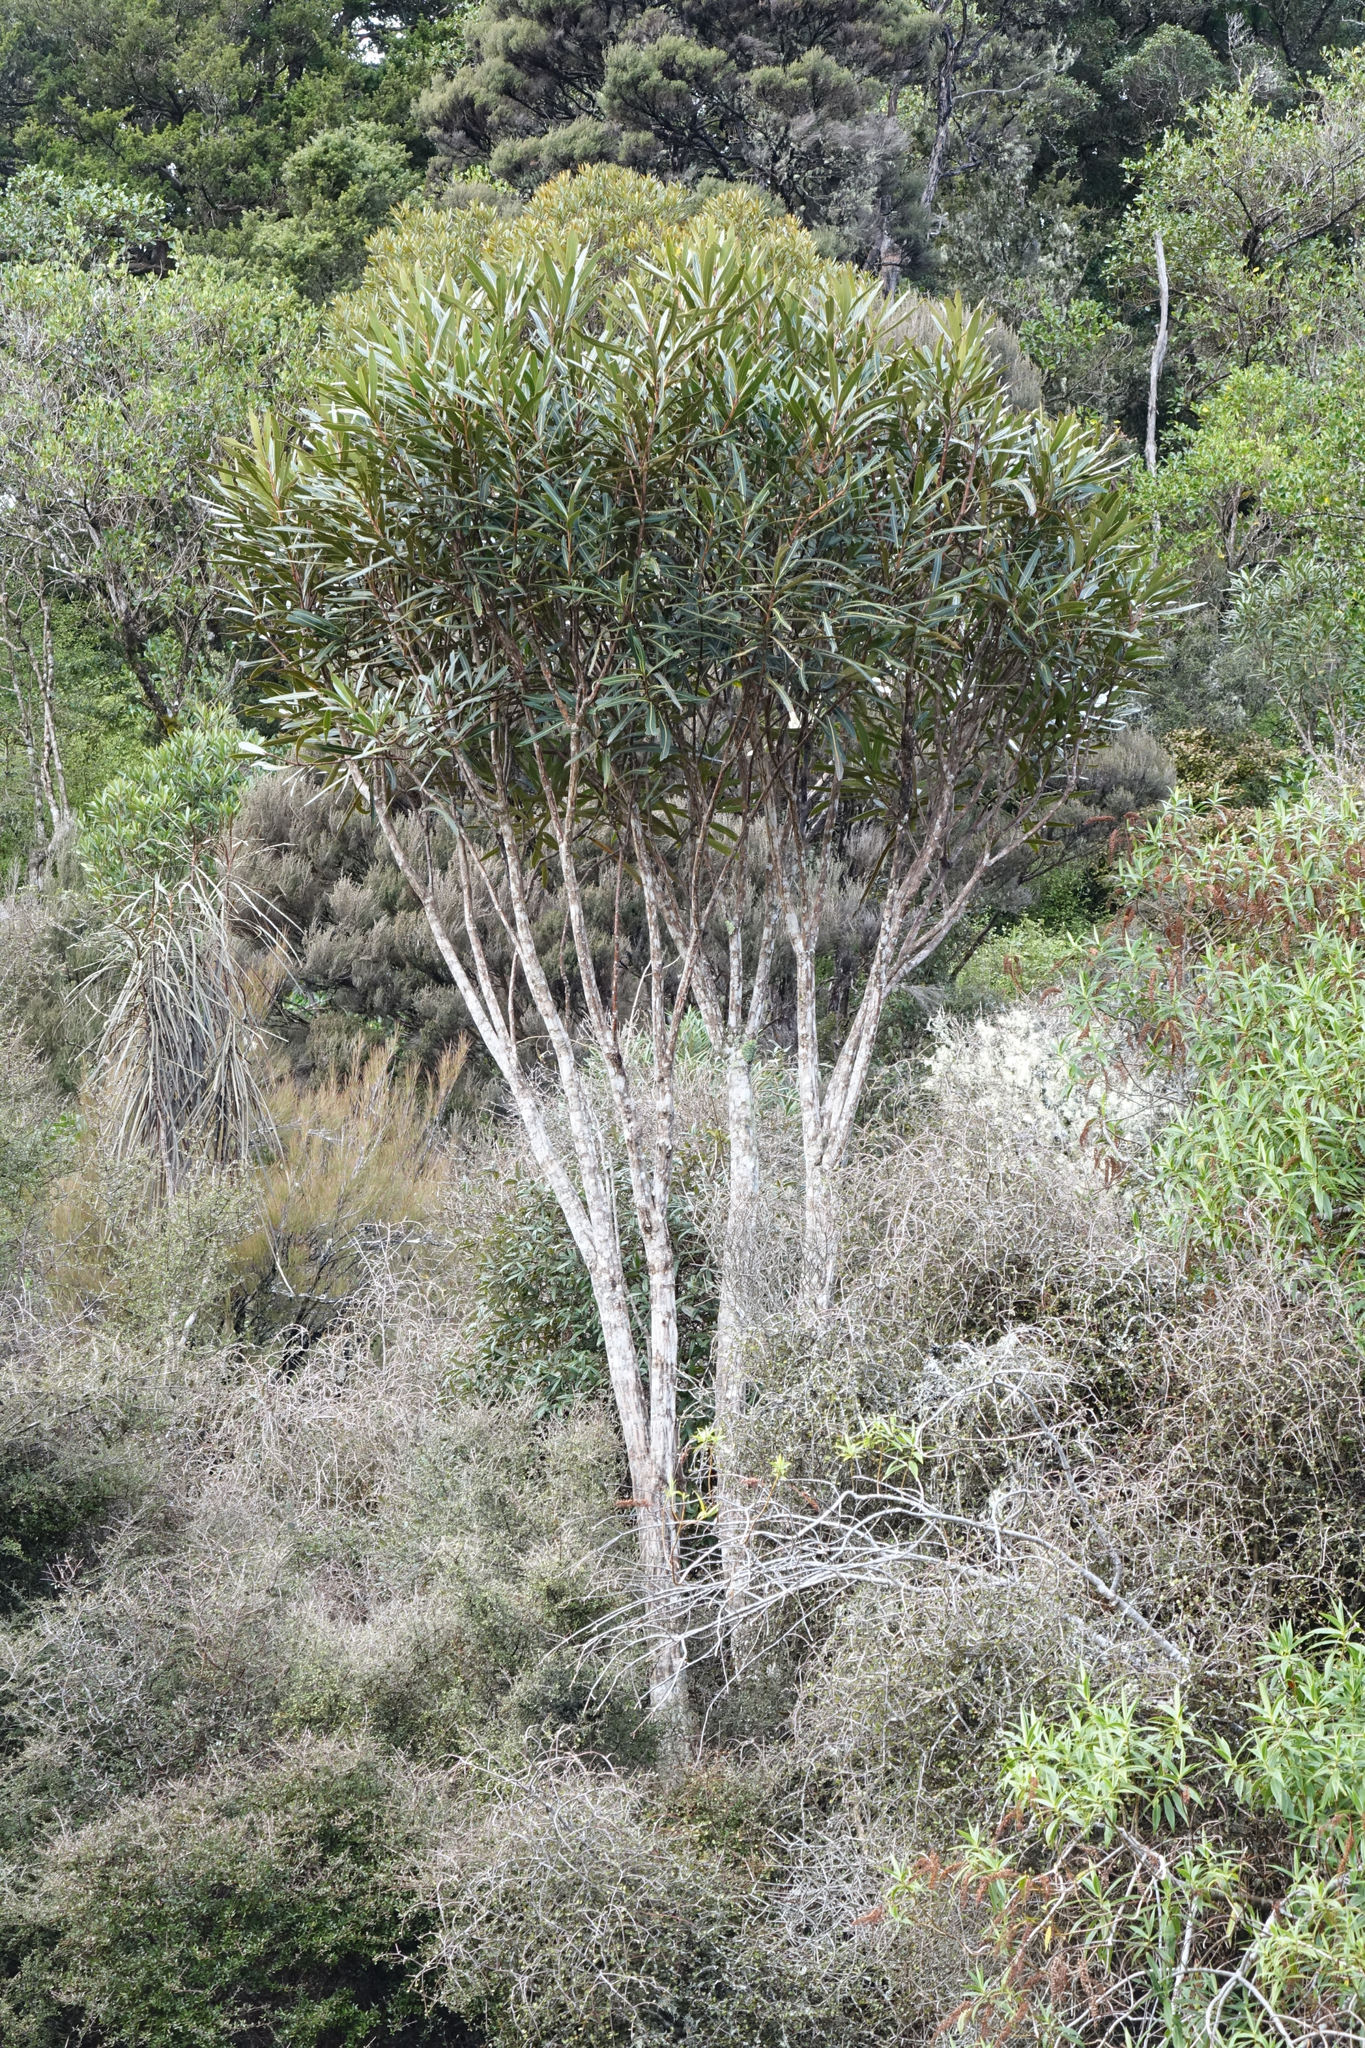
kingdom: Plantae
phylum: Tracheophyta
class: Magnoliopsida
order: Apiales
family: Araliaceae
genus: Pseudopanax
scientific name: Pseudopanax crassifolius
